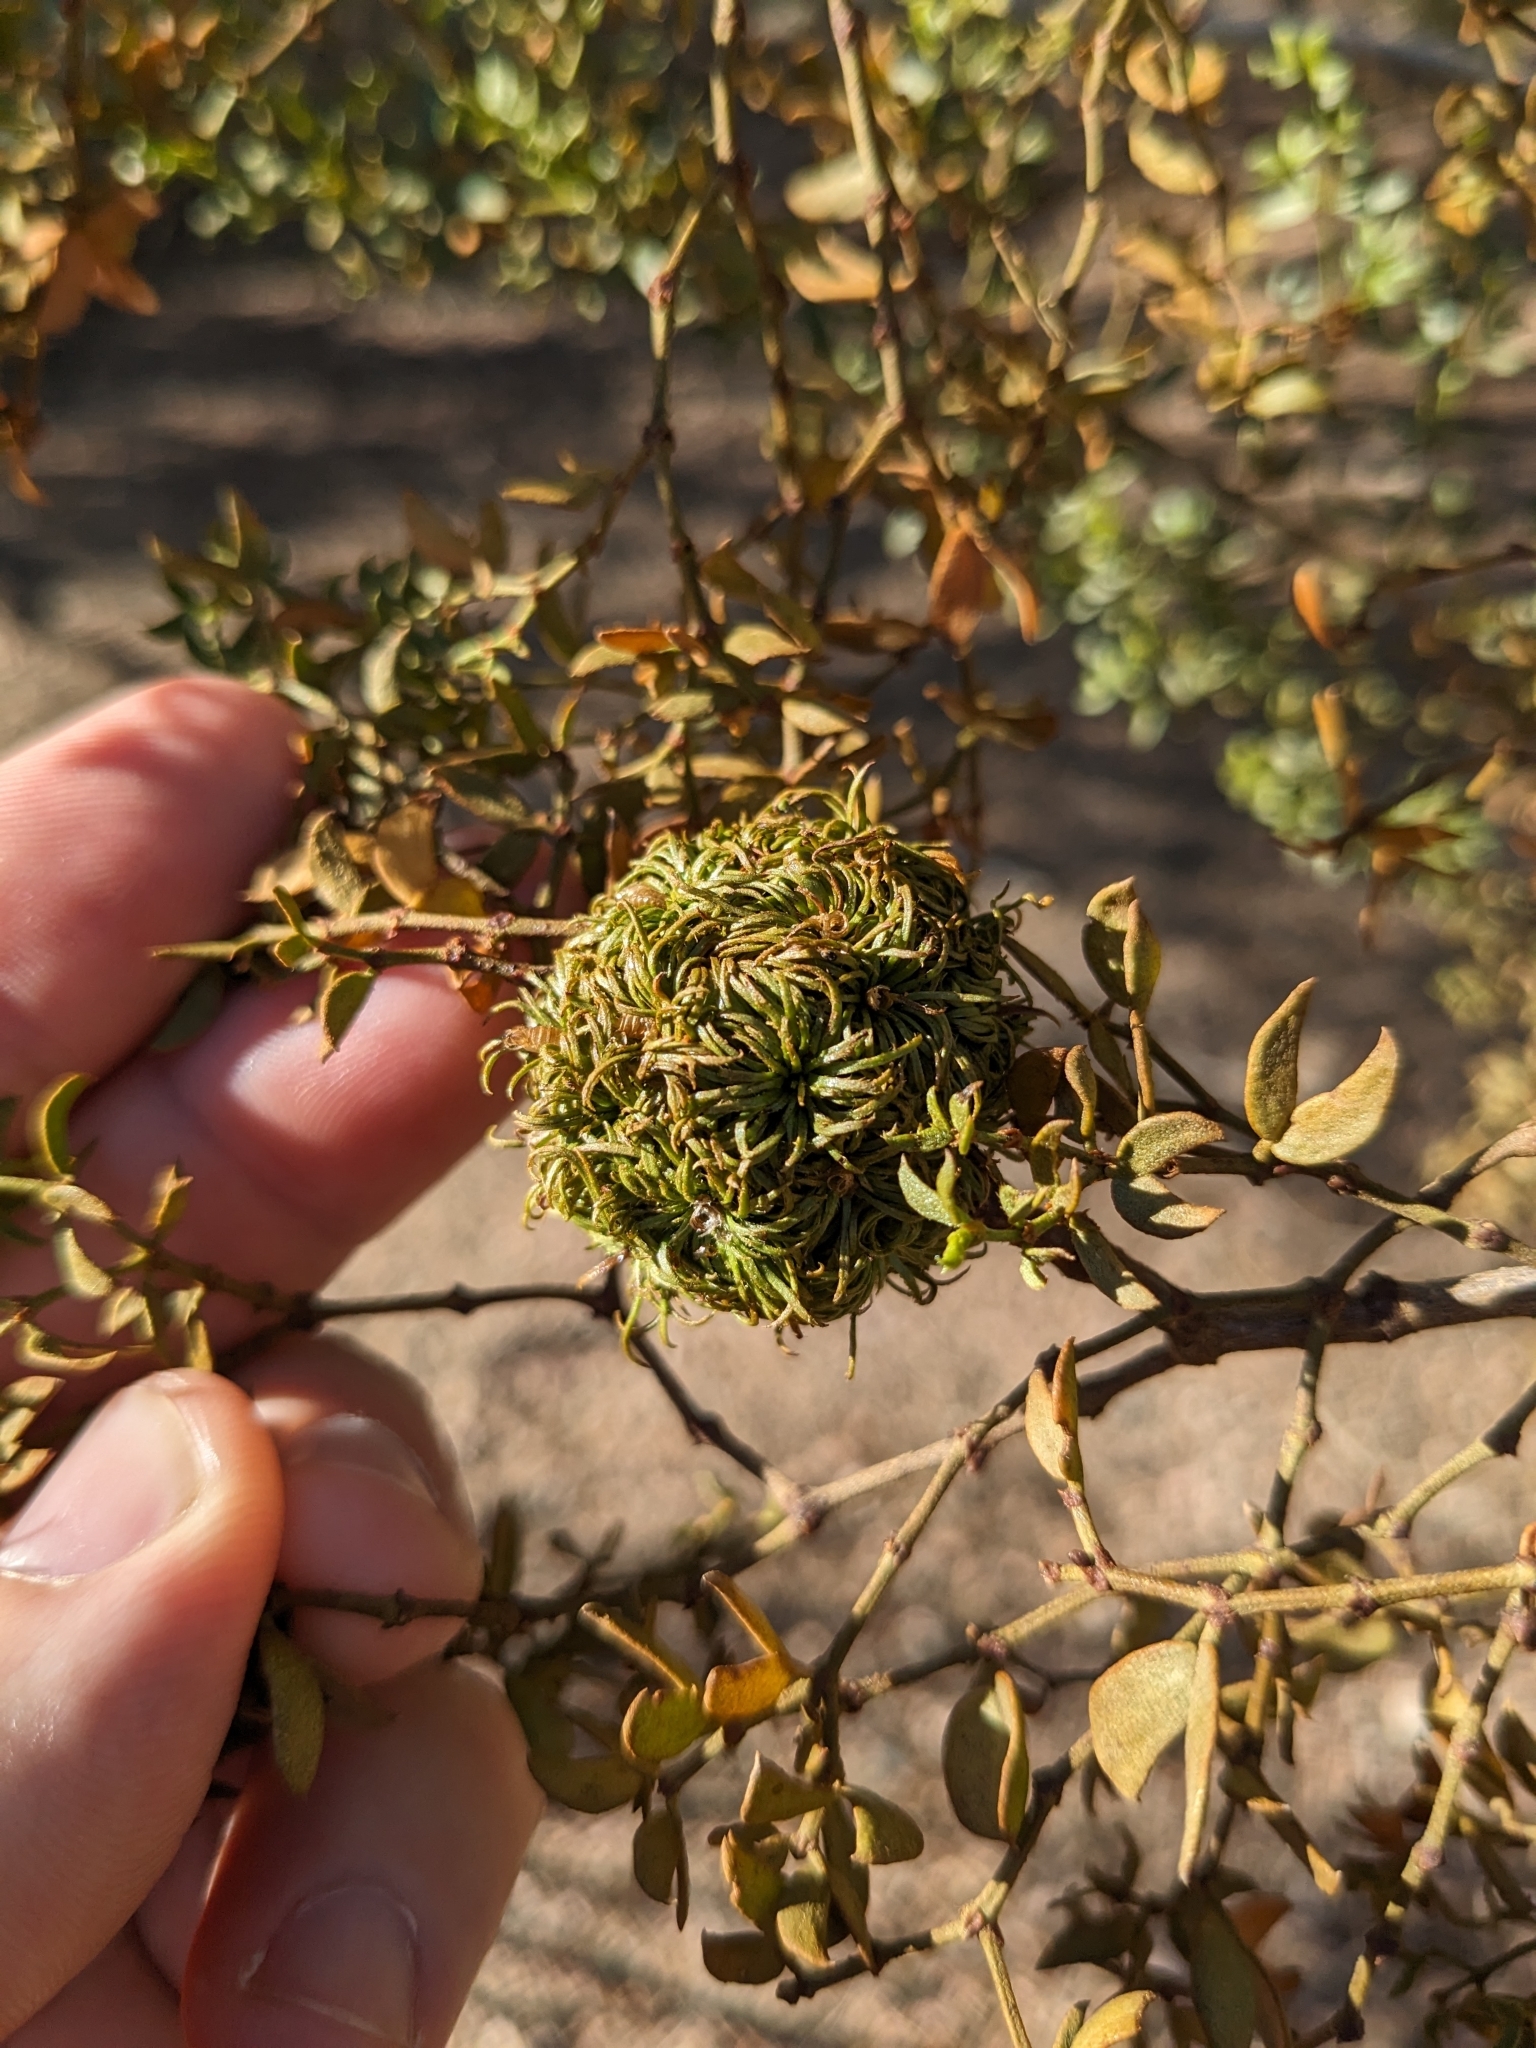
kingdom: Animalia
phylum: Arthropoda
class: Insecta
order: Diptera
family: Cecidomyiidae
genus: Asphondylia
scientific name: Asphondylia auripila
